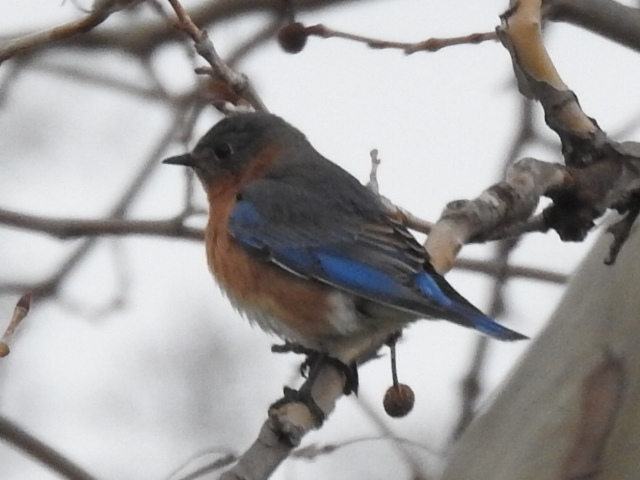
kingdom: Animalia
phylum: Chordata
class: Aves
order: Passeriformes
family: Turdidae
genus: Sialia
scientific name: Sialia sialis
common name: Eastern bluebird
